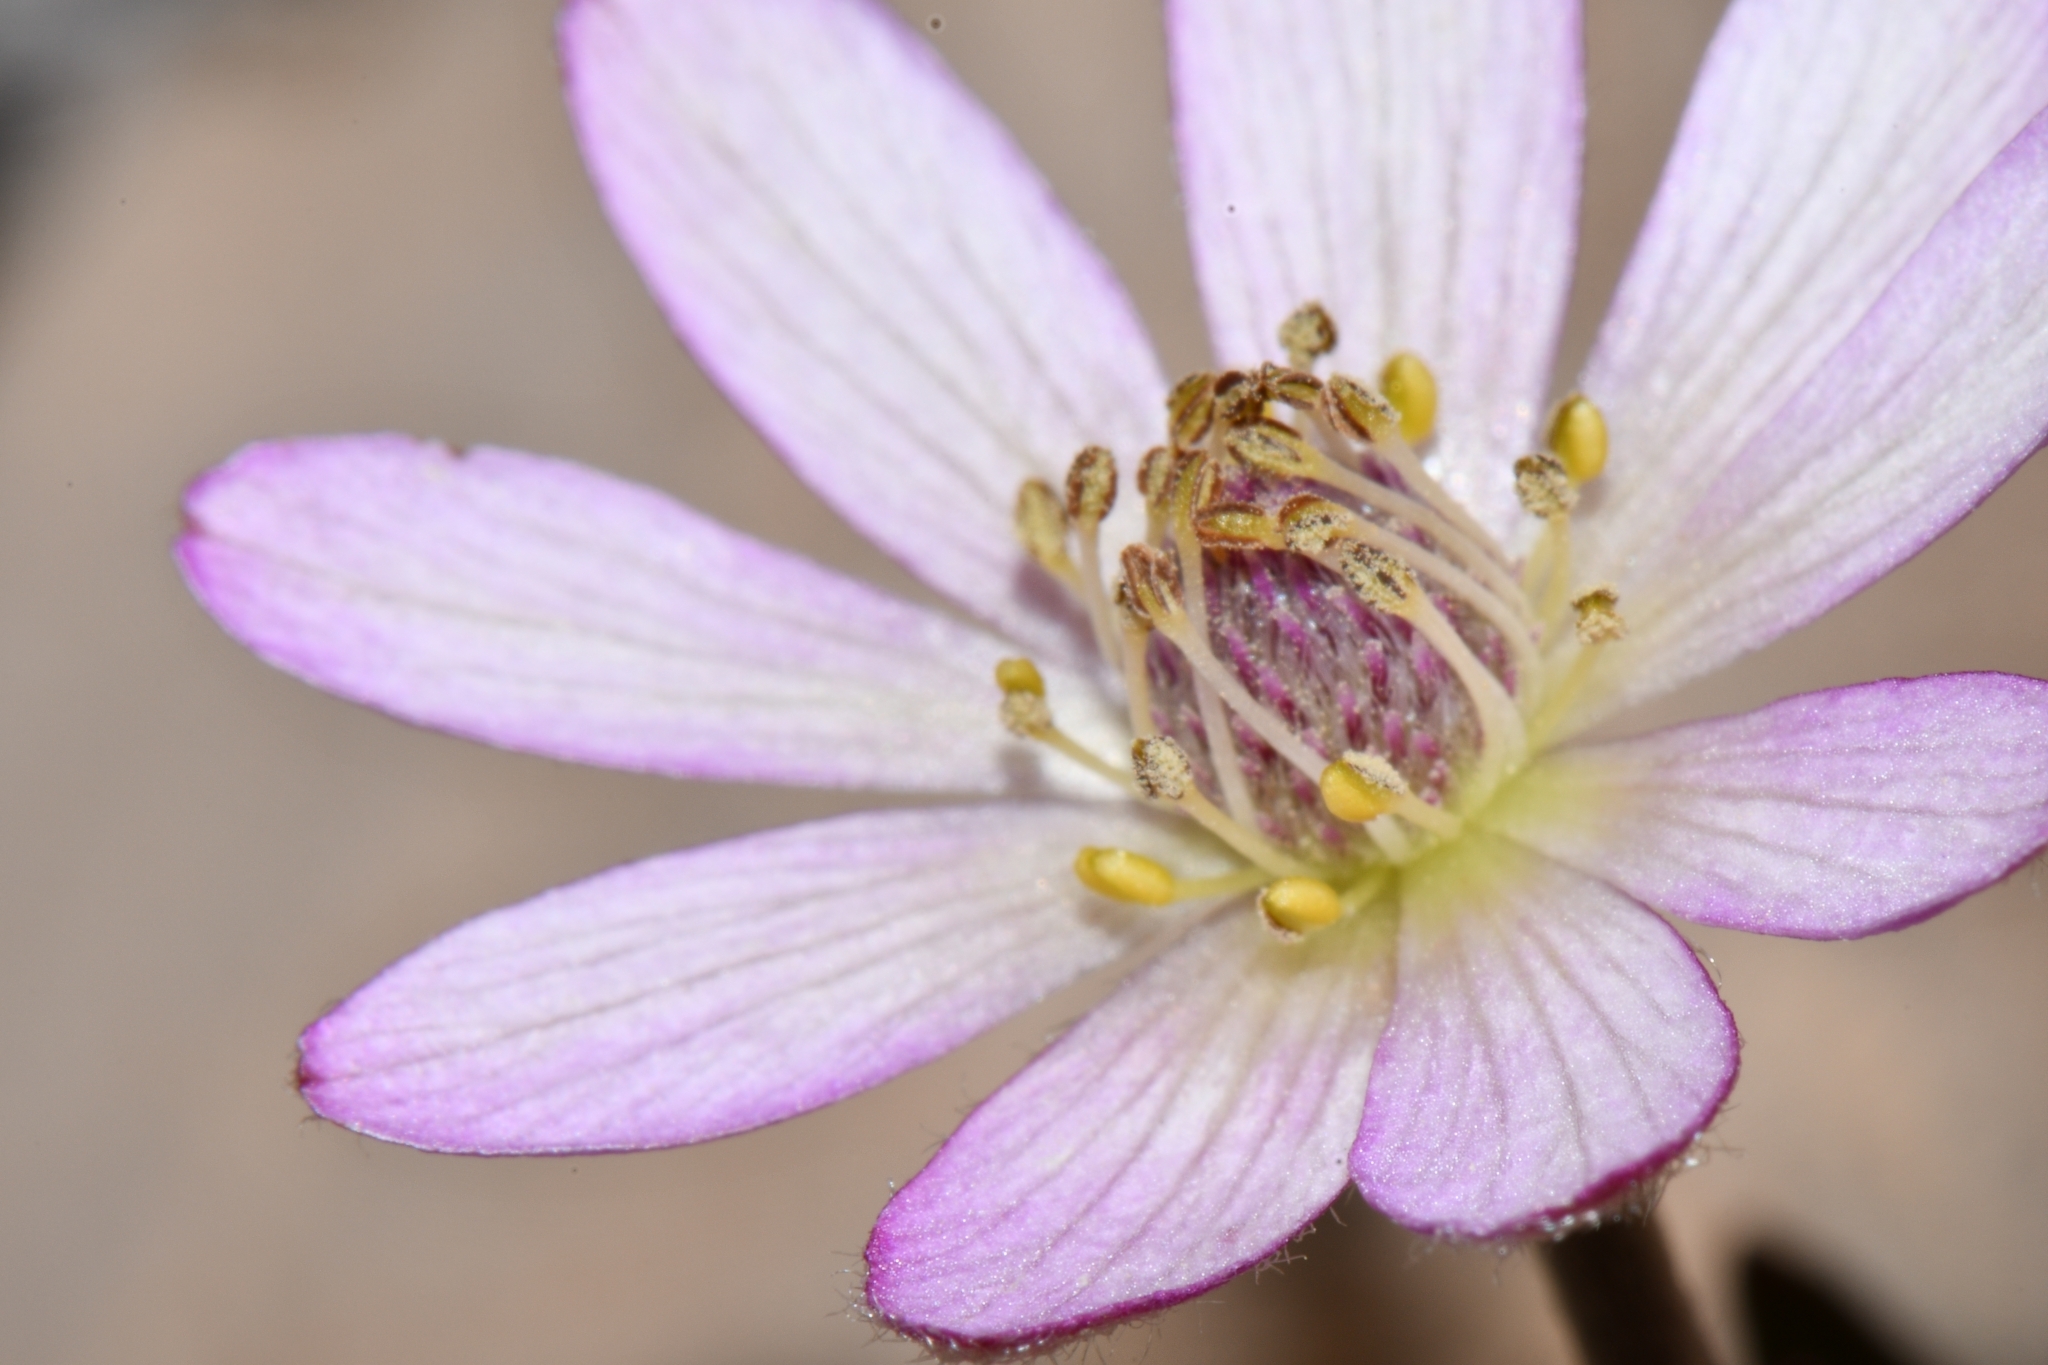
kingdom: Plantae
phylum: Tracheophyta
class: Magnoliopsida
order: Ranunculales
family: Ranunculaceae
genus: Anemone
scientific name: Anemone tuberosa
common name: Desert anemone
